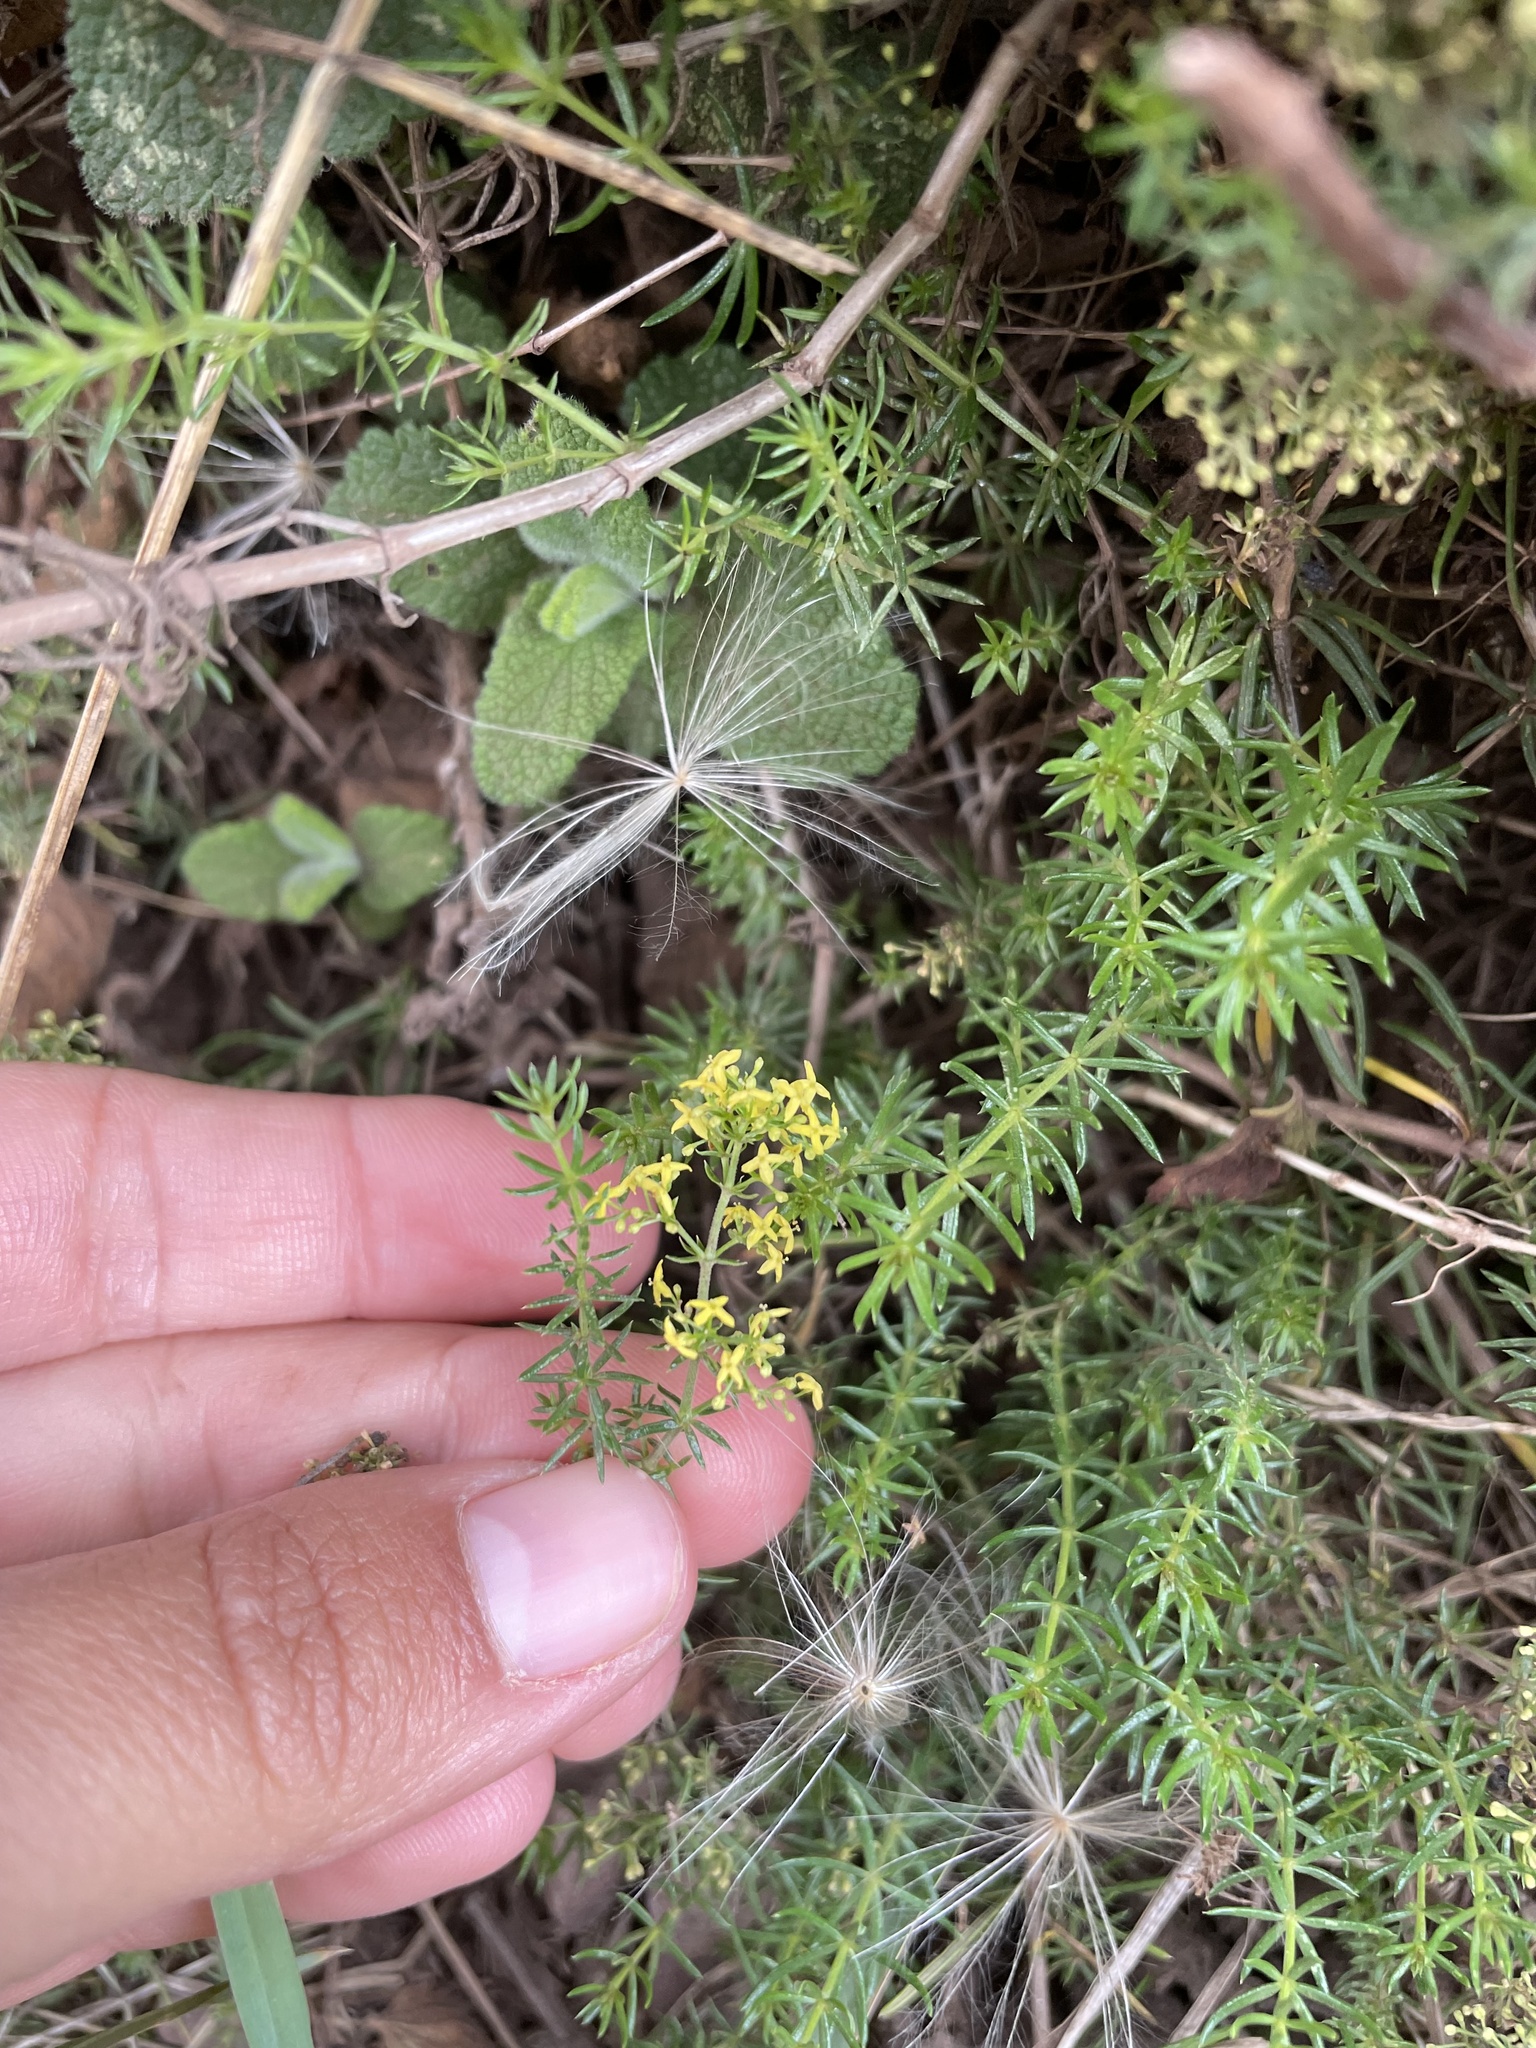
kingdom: Plantae
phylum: Tracheophyta
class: Magnoliopsida
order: Gentianales
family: Rubiaceae
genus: Galium
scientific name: Galium verum
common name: Lady's bedstraw
